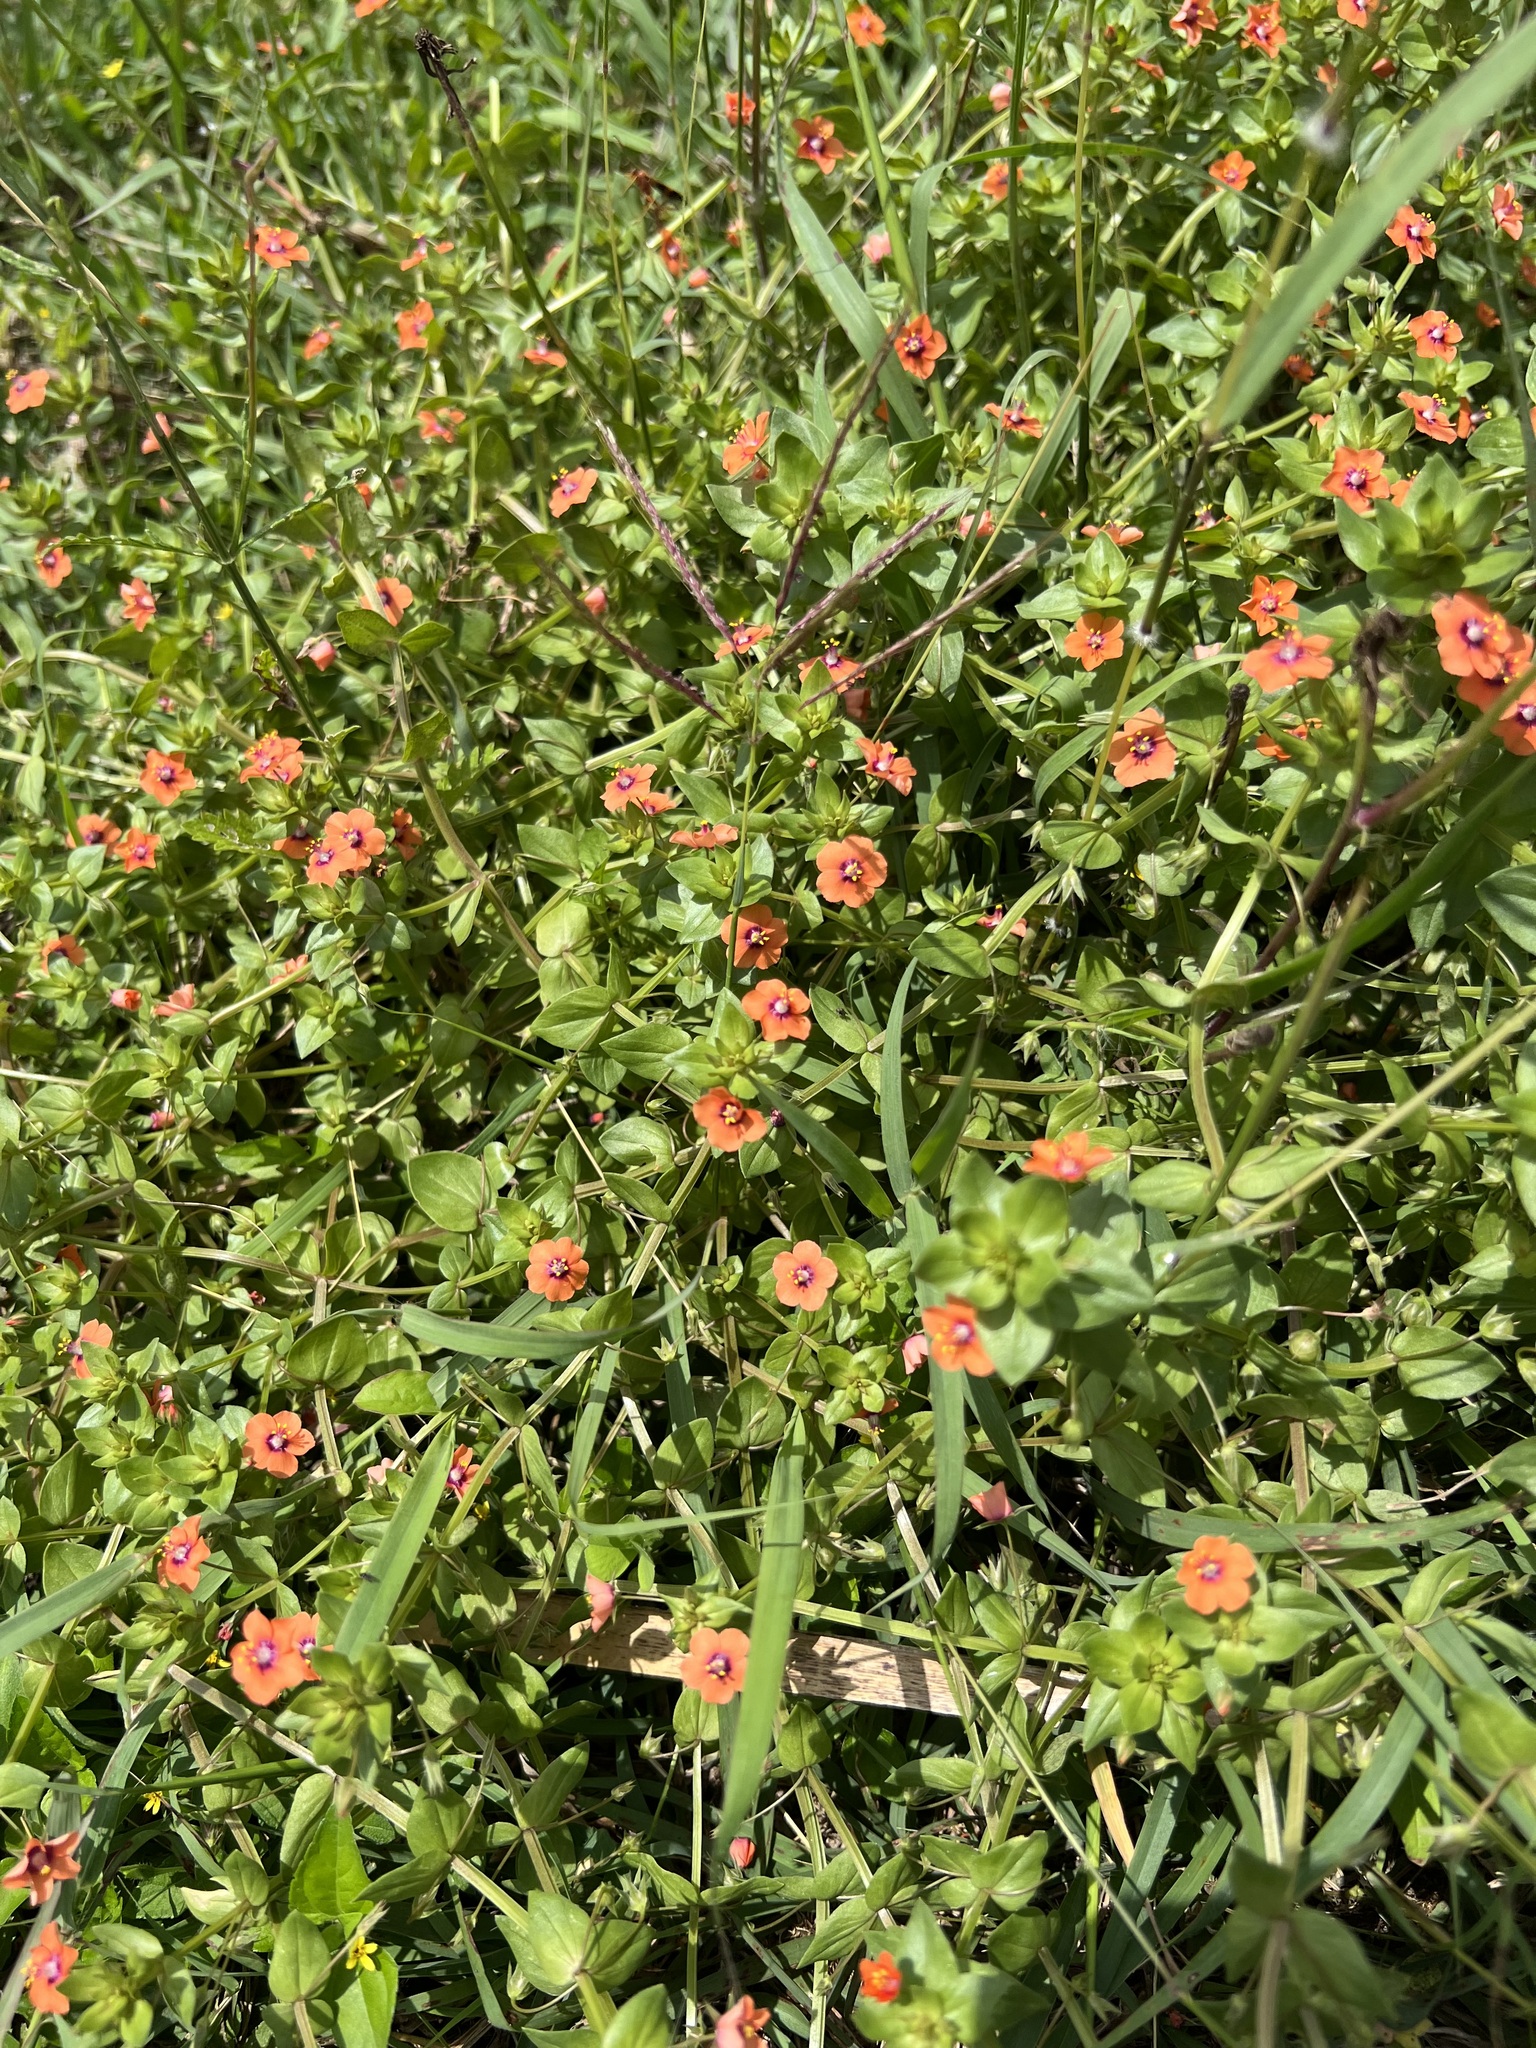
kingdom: Plantae
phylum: Tracheophyta
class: Magnoliopsida
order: Ericales
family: Primulaceae
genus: Lysimachia
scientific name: Lysimachia arvensis
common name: Scarlet pimpernel
